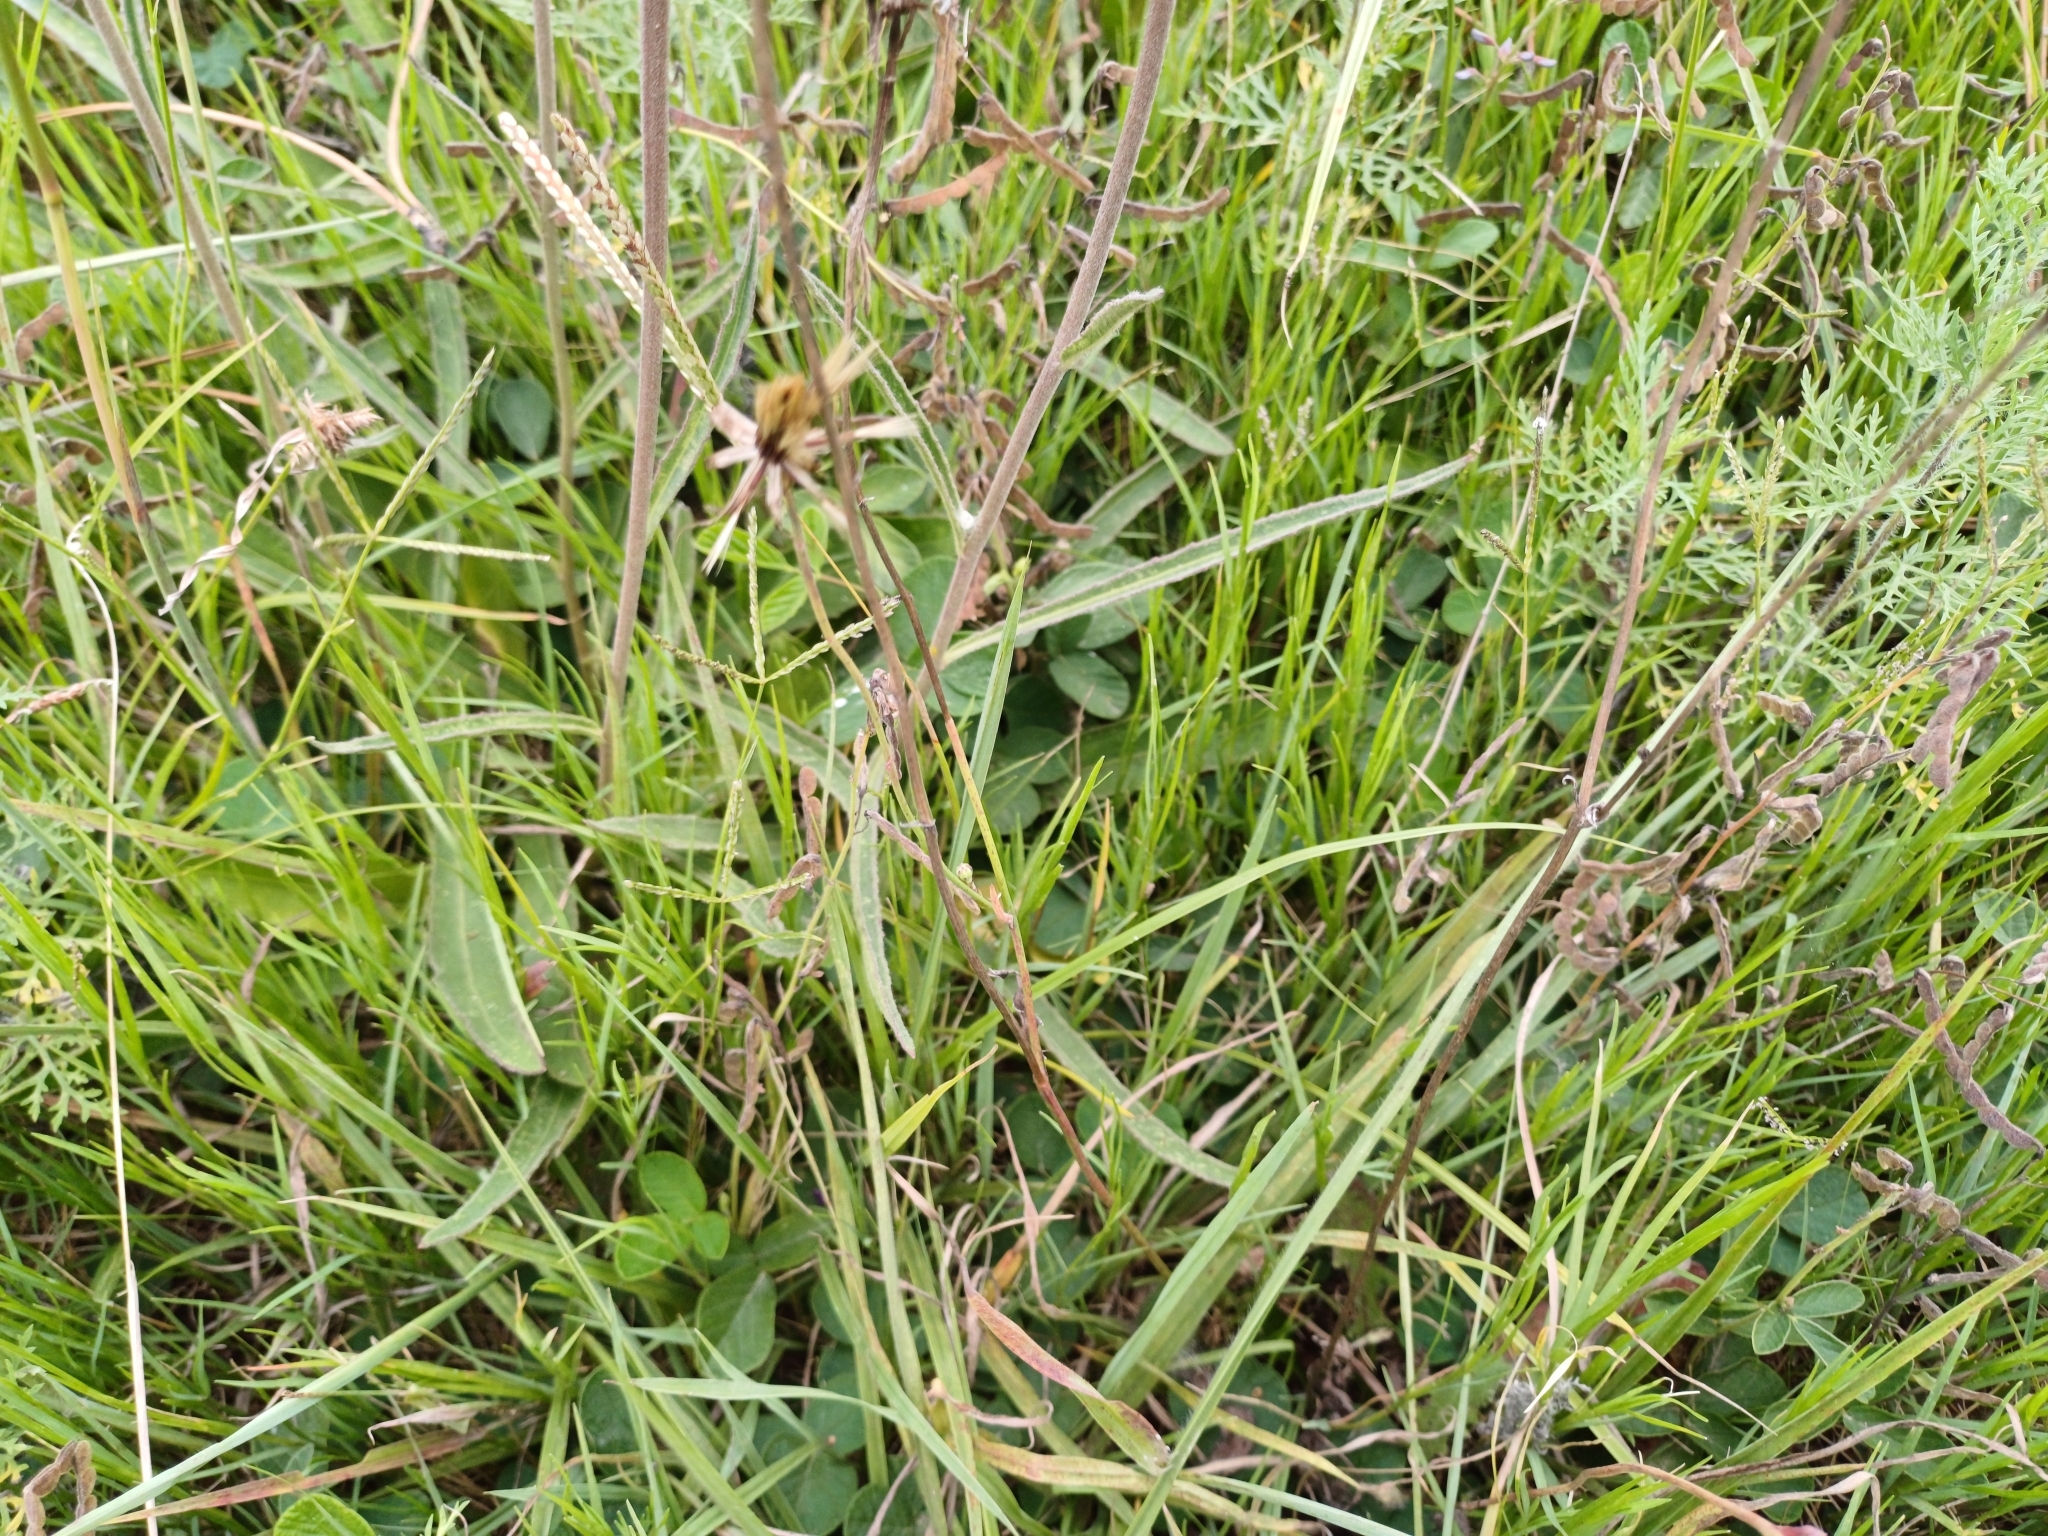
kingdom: Plantae
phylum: Tracheophyta
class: Magnoliopsida
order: Asterales
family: Asteraceae
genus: Chrysolaena
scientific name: Chrysolaena flexuosa
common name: Zig-zag vernonia
